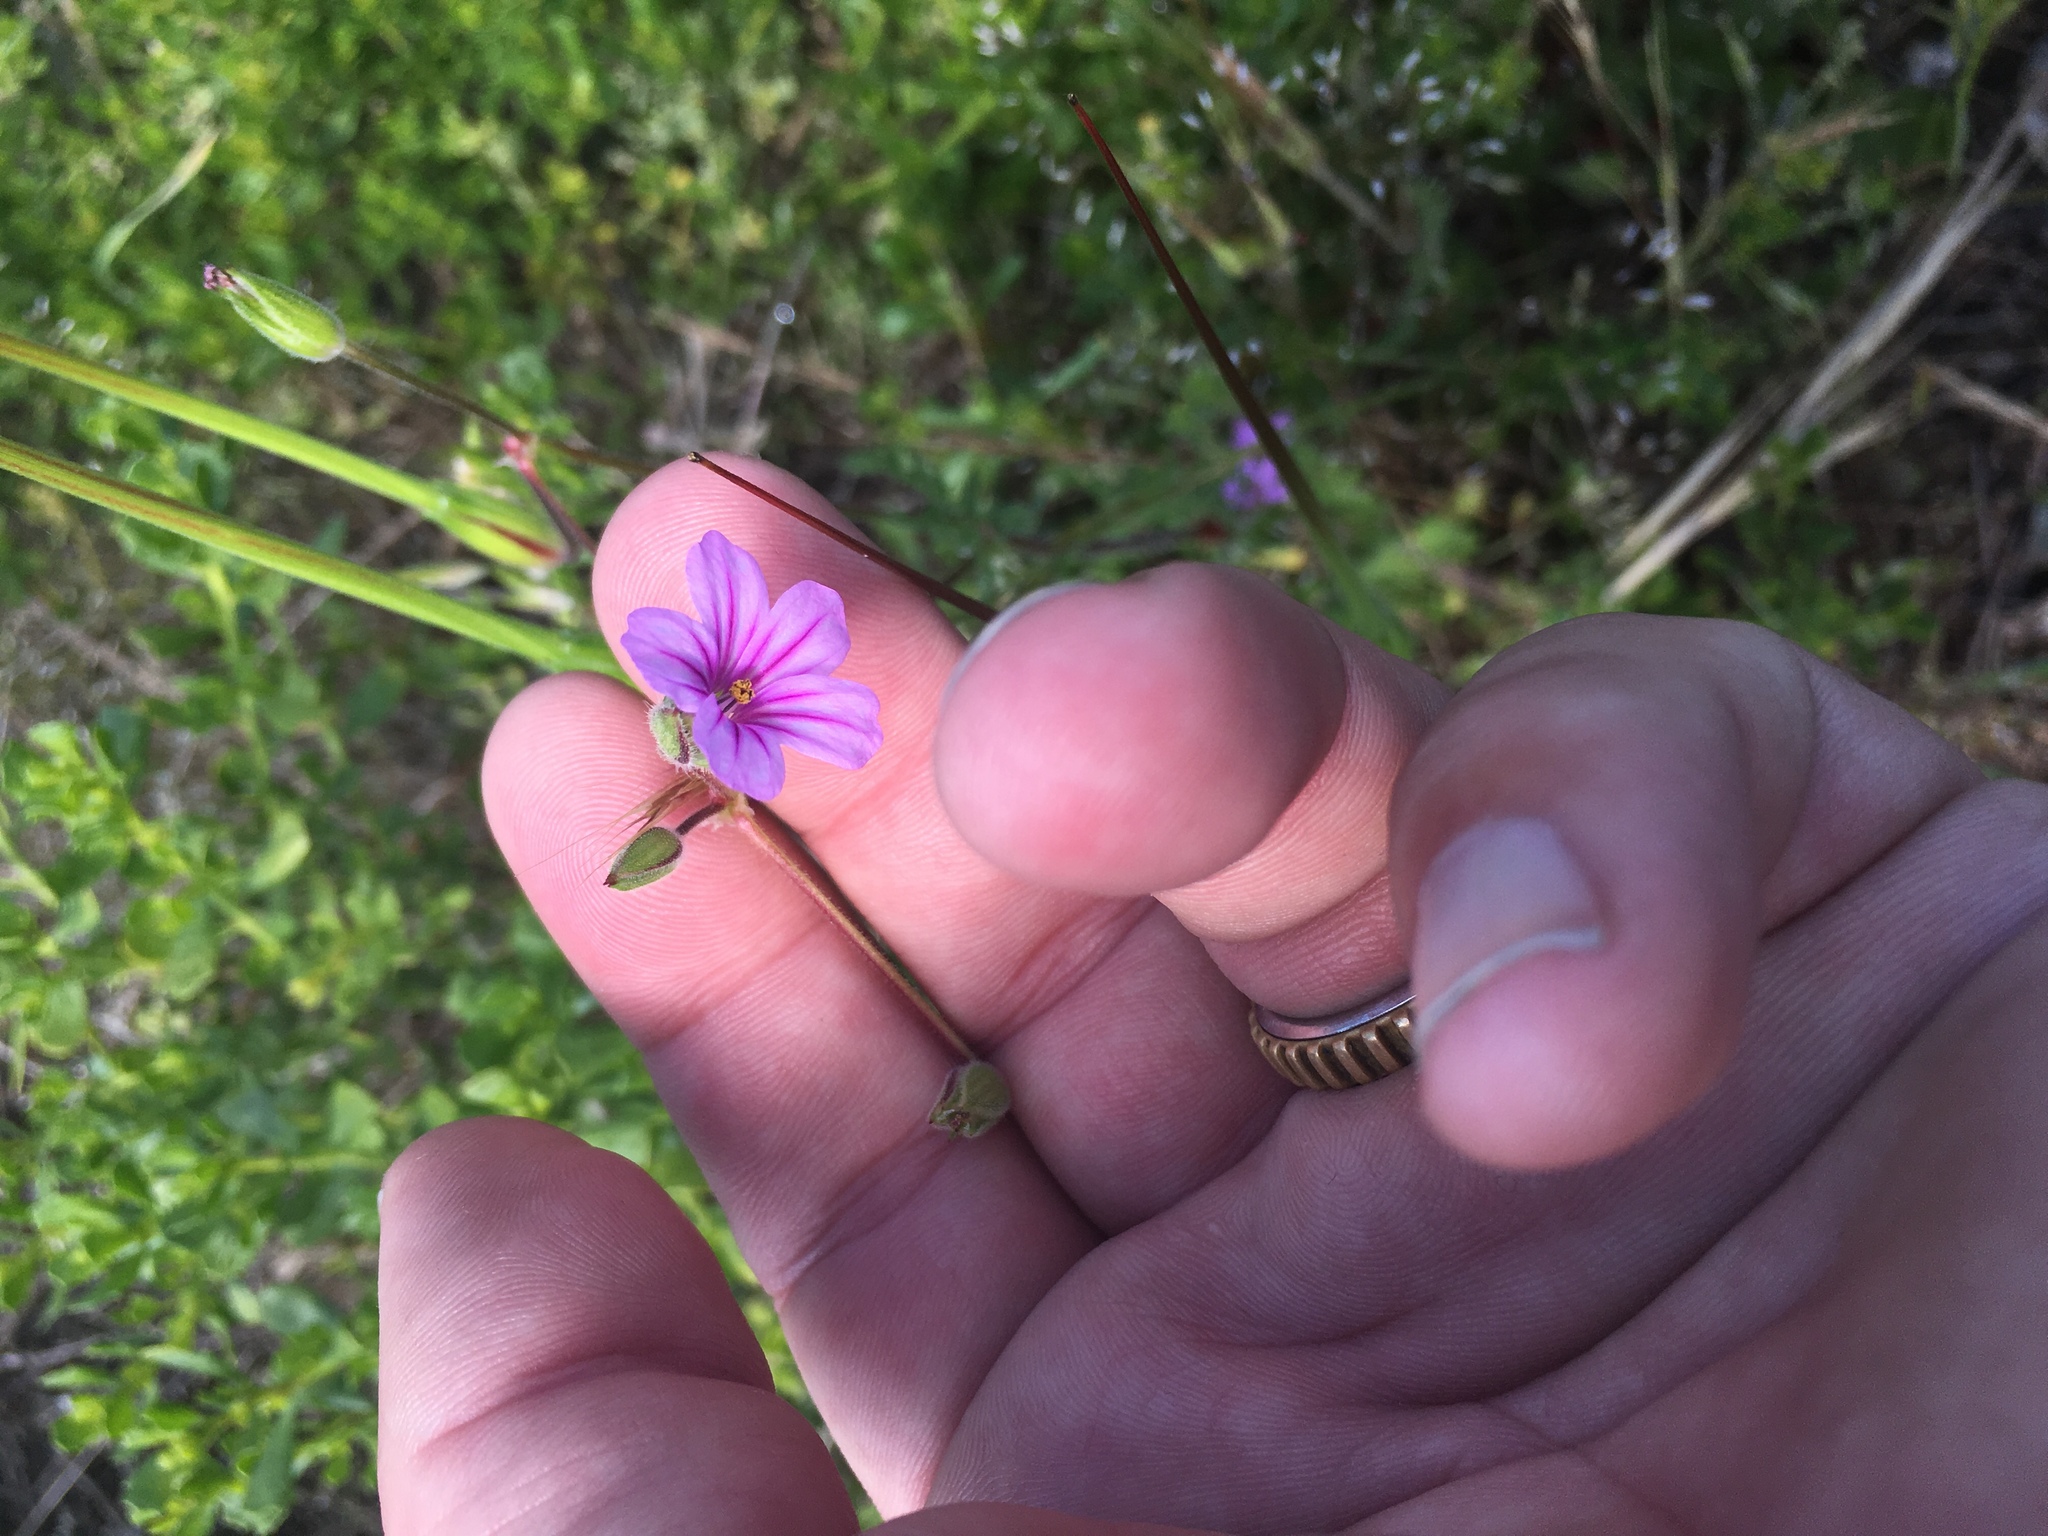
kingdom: Plantae
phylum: Tracheophyta
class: Magnoliopsida
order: Geraniales
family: Geraniaceae
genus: Erodium
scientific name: Erodium botrys
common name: Mediterranean stork's-bill
